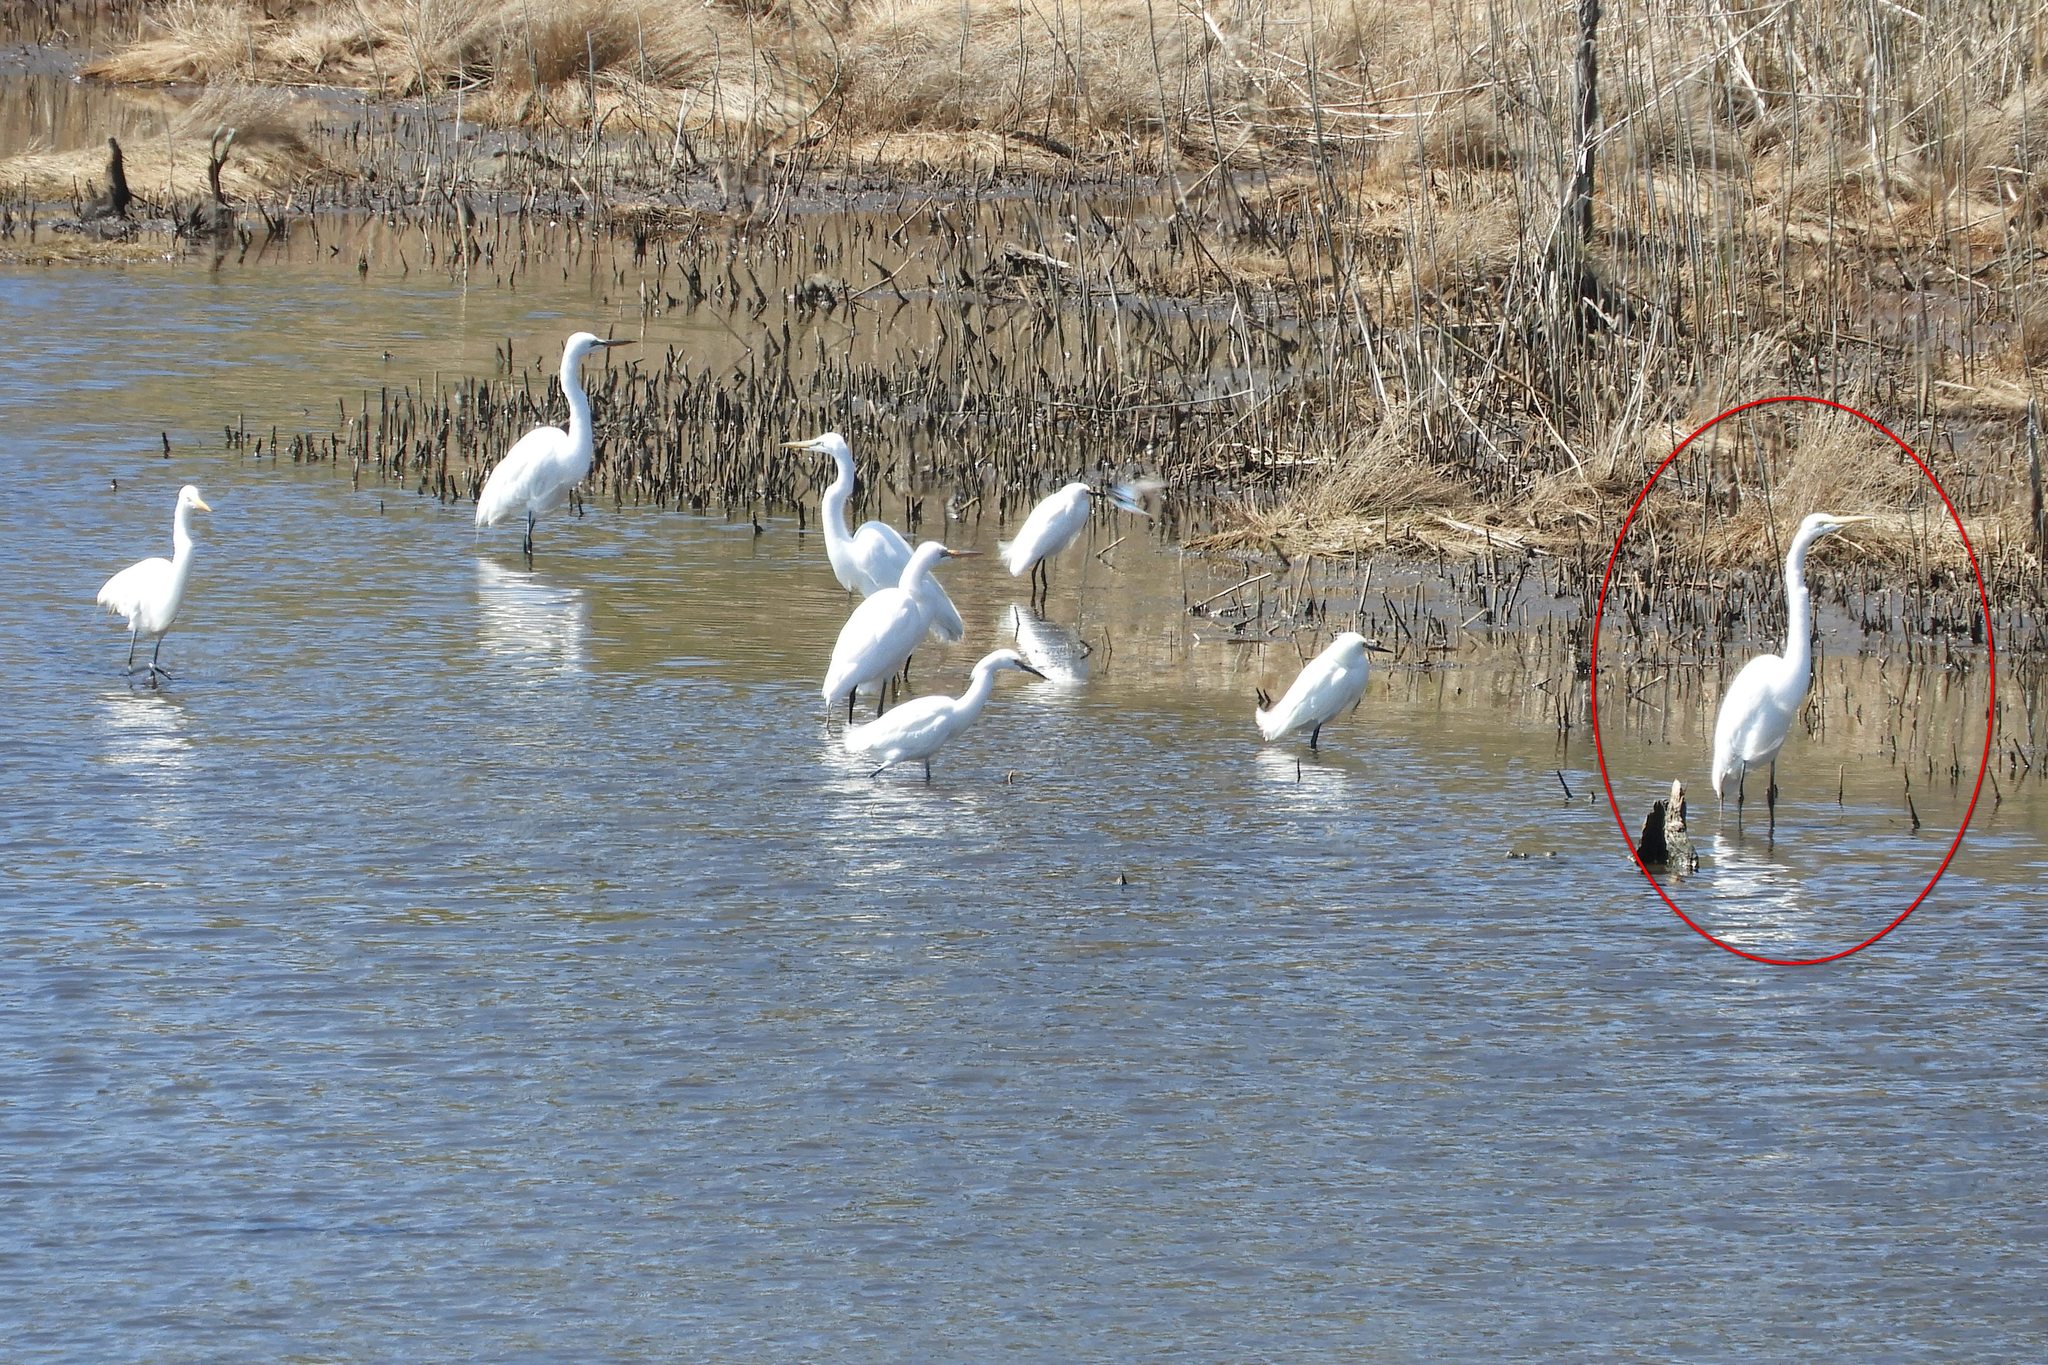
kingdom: Animalia
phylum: Chordata
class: Aves
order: Pelecaniformes
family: Ardeidae
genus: Ardea
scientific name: Ardea alba
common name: Great egret
